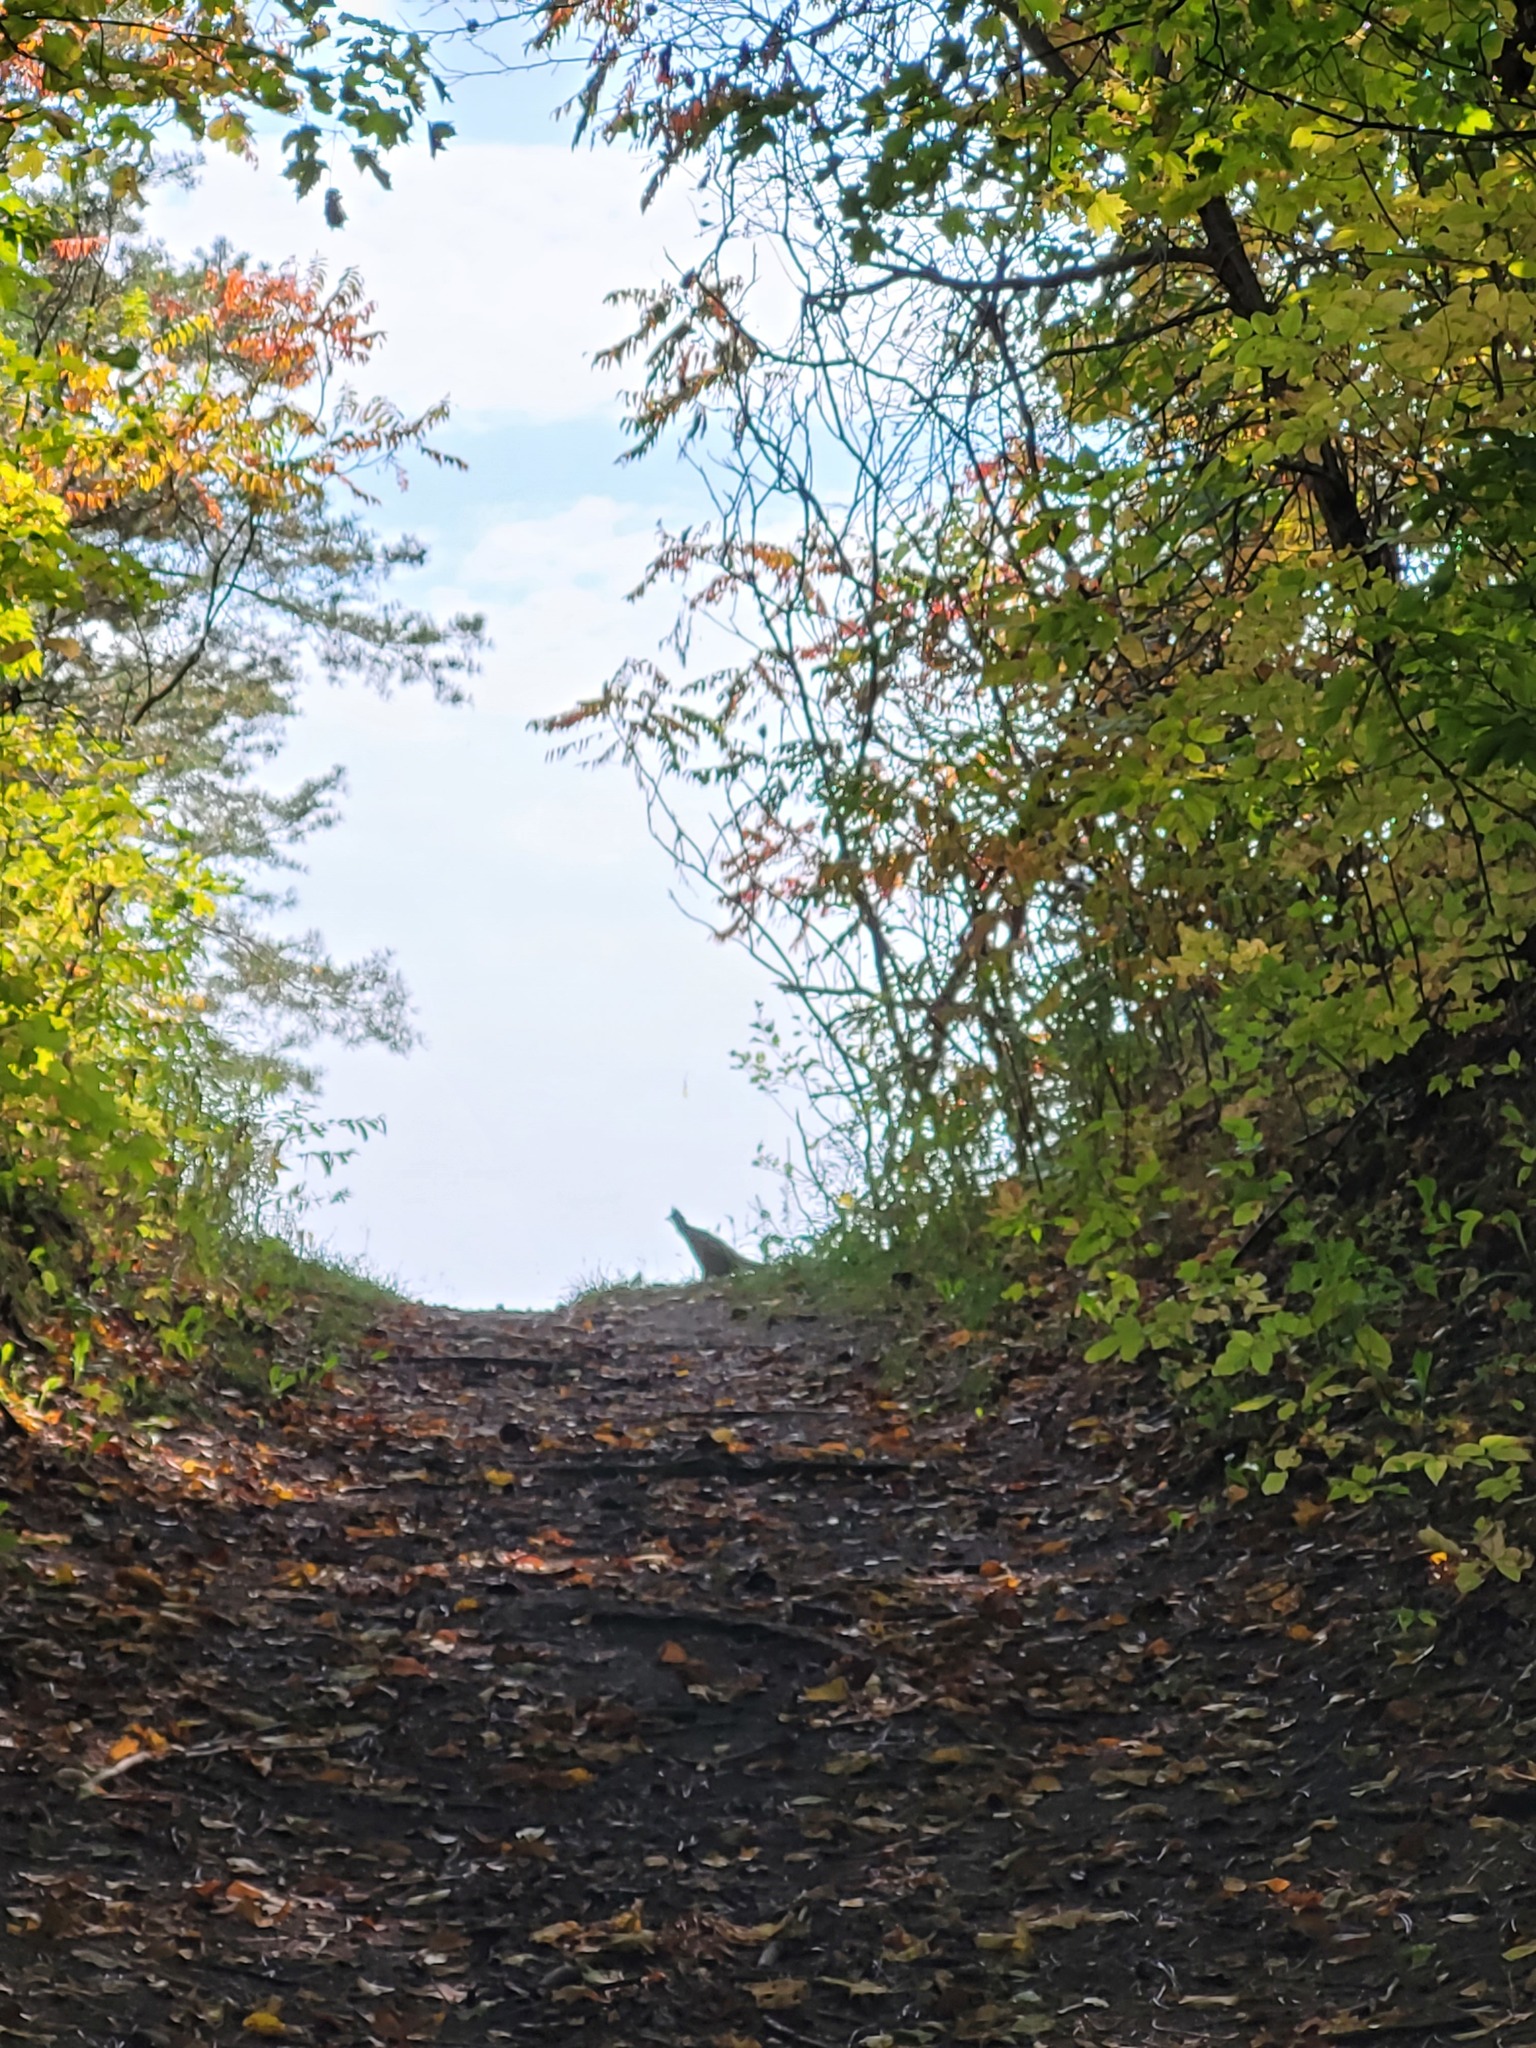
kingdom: Animalia
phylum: Chordata
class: Aves
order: Galliformes
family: Phasianidae
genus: Bonasa
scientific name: Bonasa umbellus
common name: Ruffed grouse
